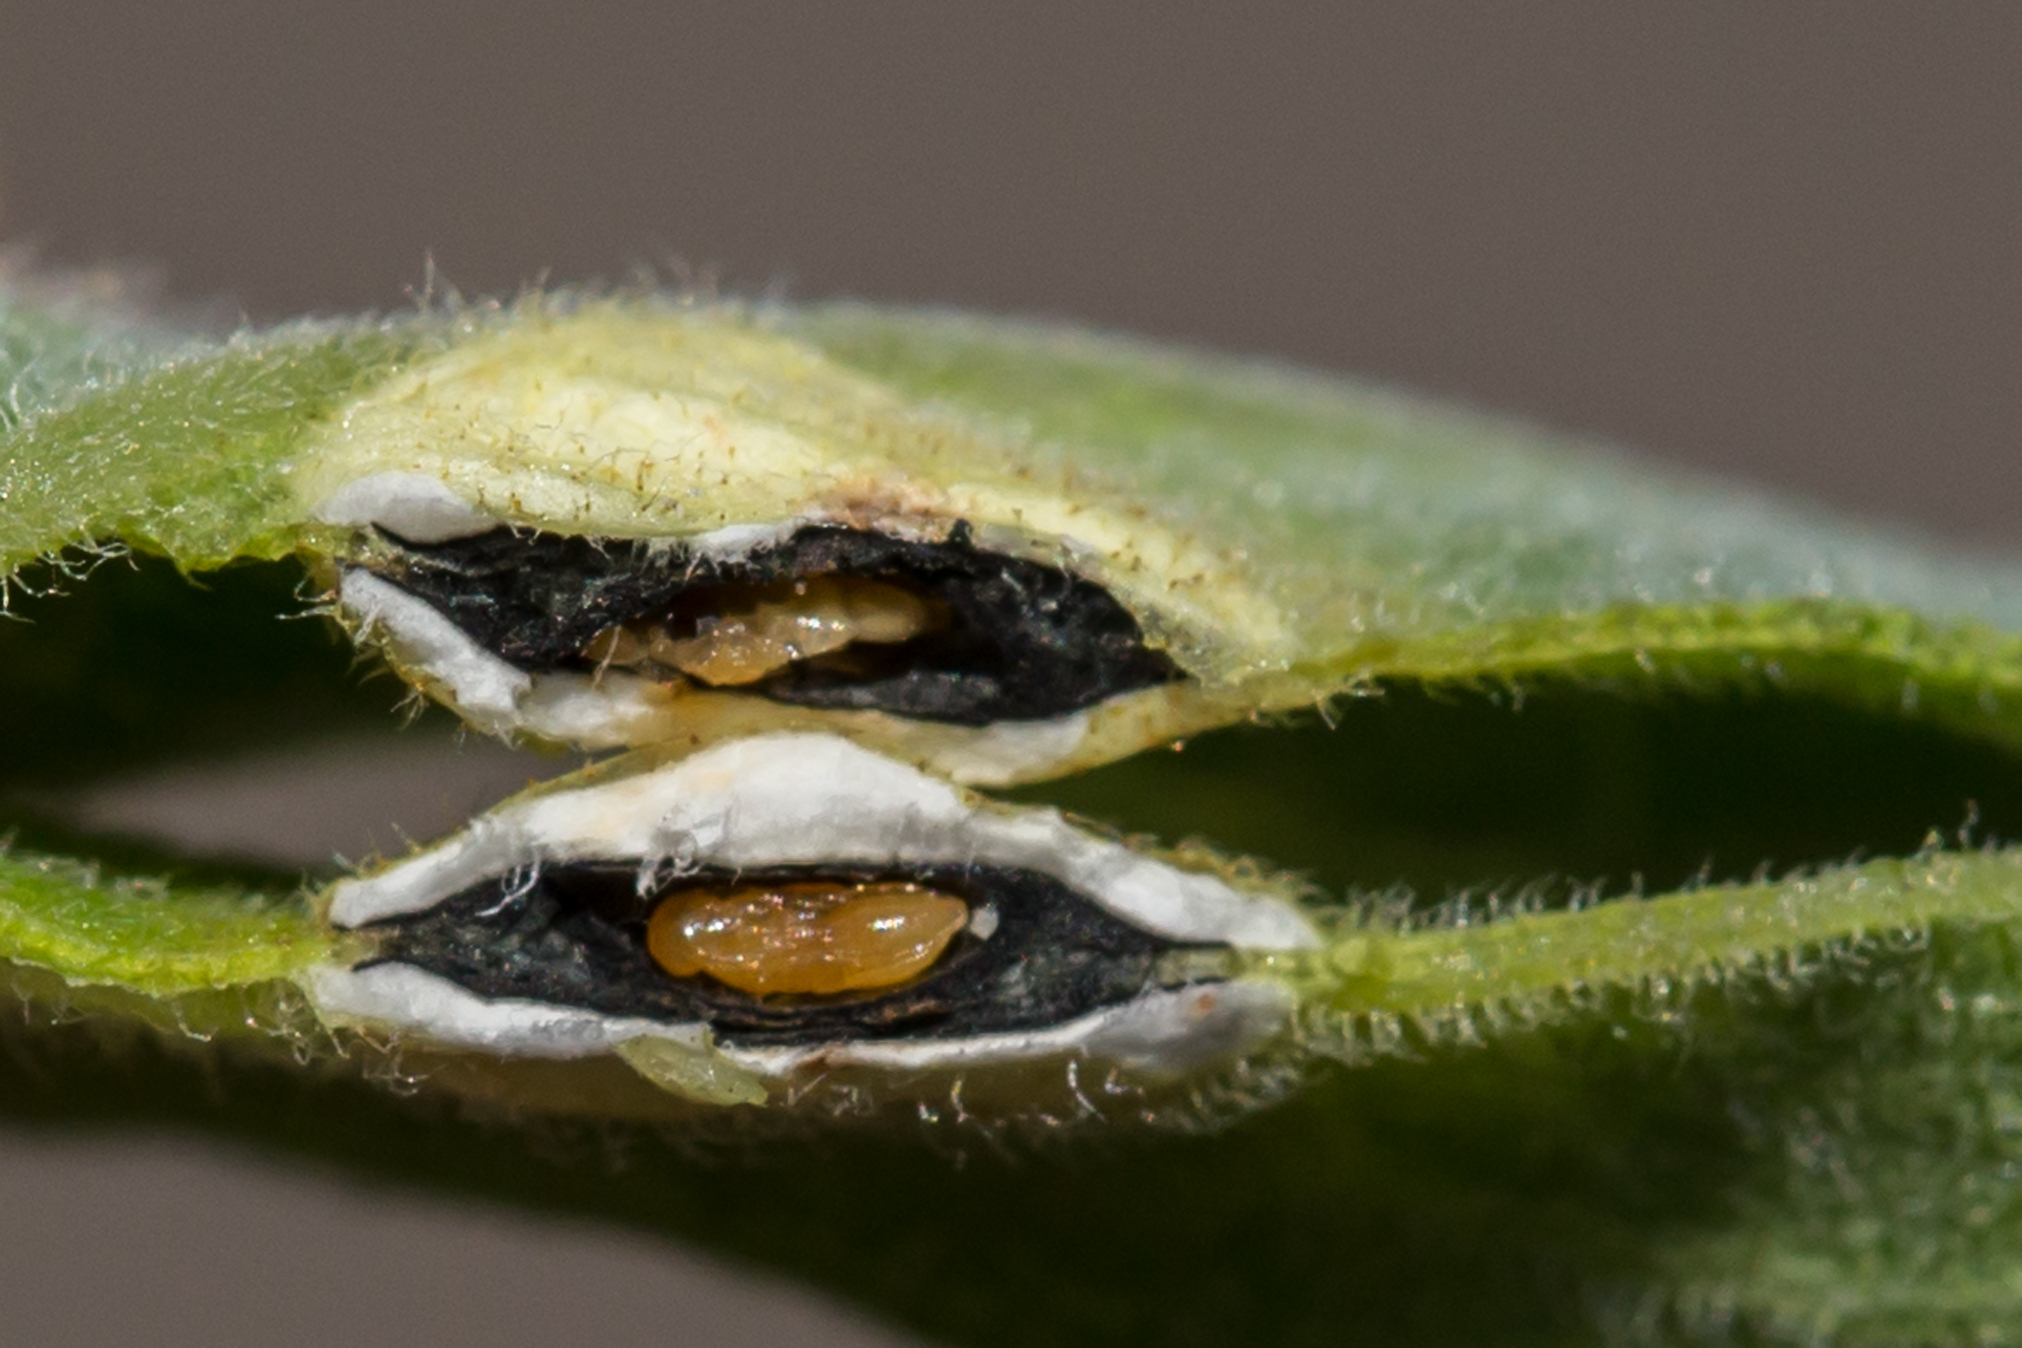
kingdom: Animalia
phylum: Arthropoda
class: Insecta
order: Diptera
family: Cecidomyiidae
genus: Asteromyia
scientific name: Asteromyia carbonifera
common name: Carbonifera goldenrod gall midge
